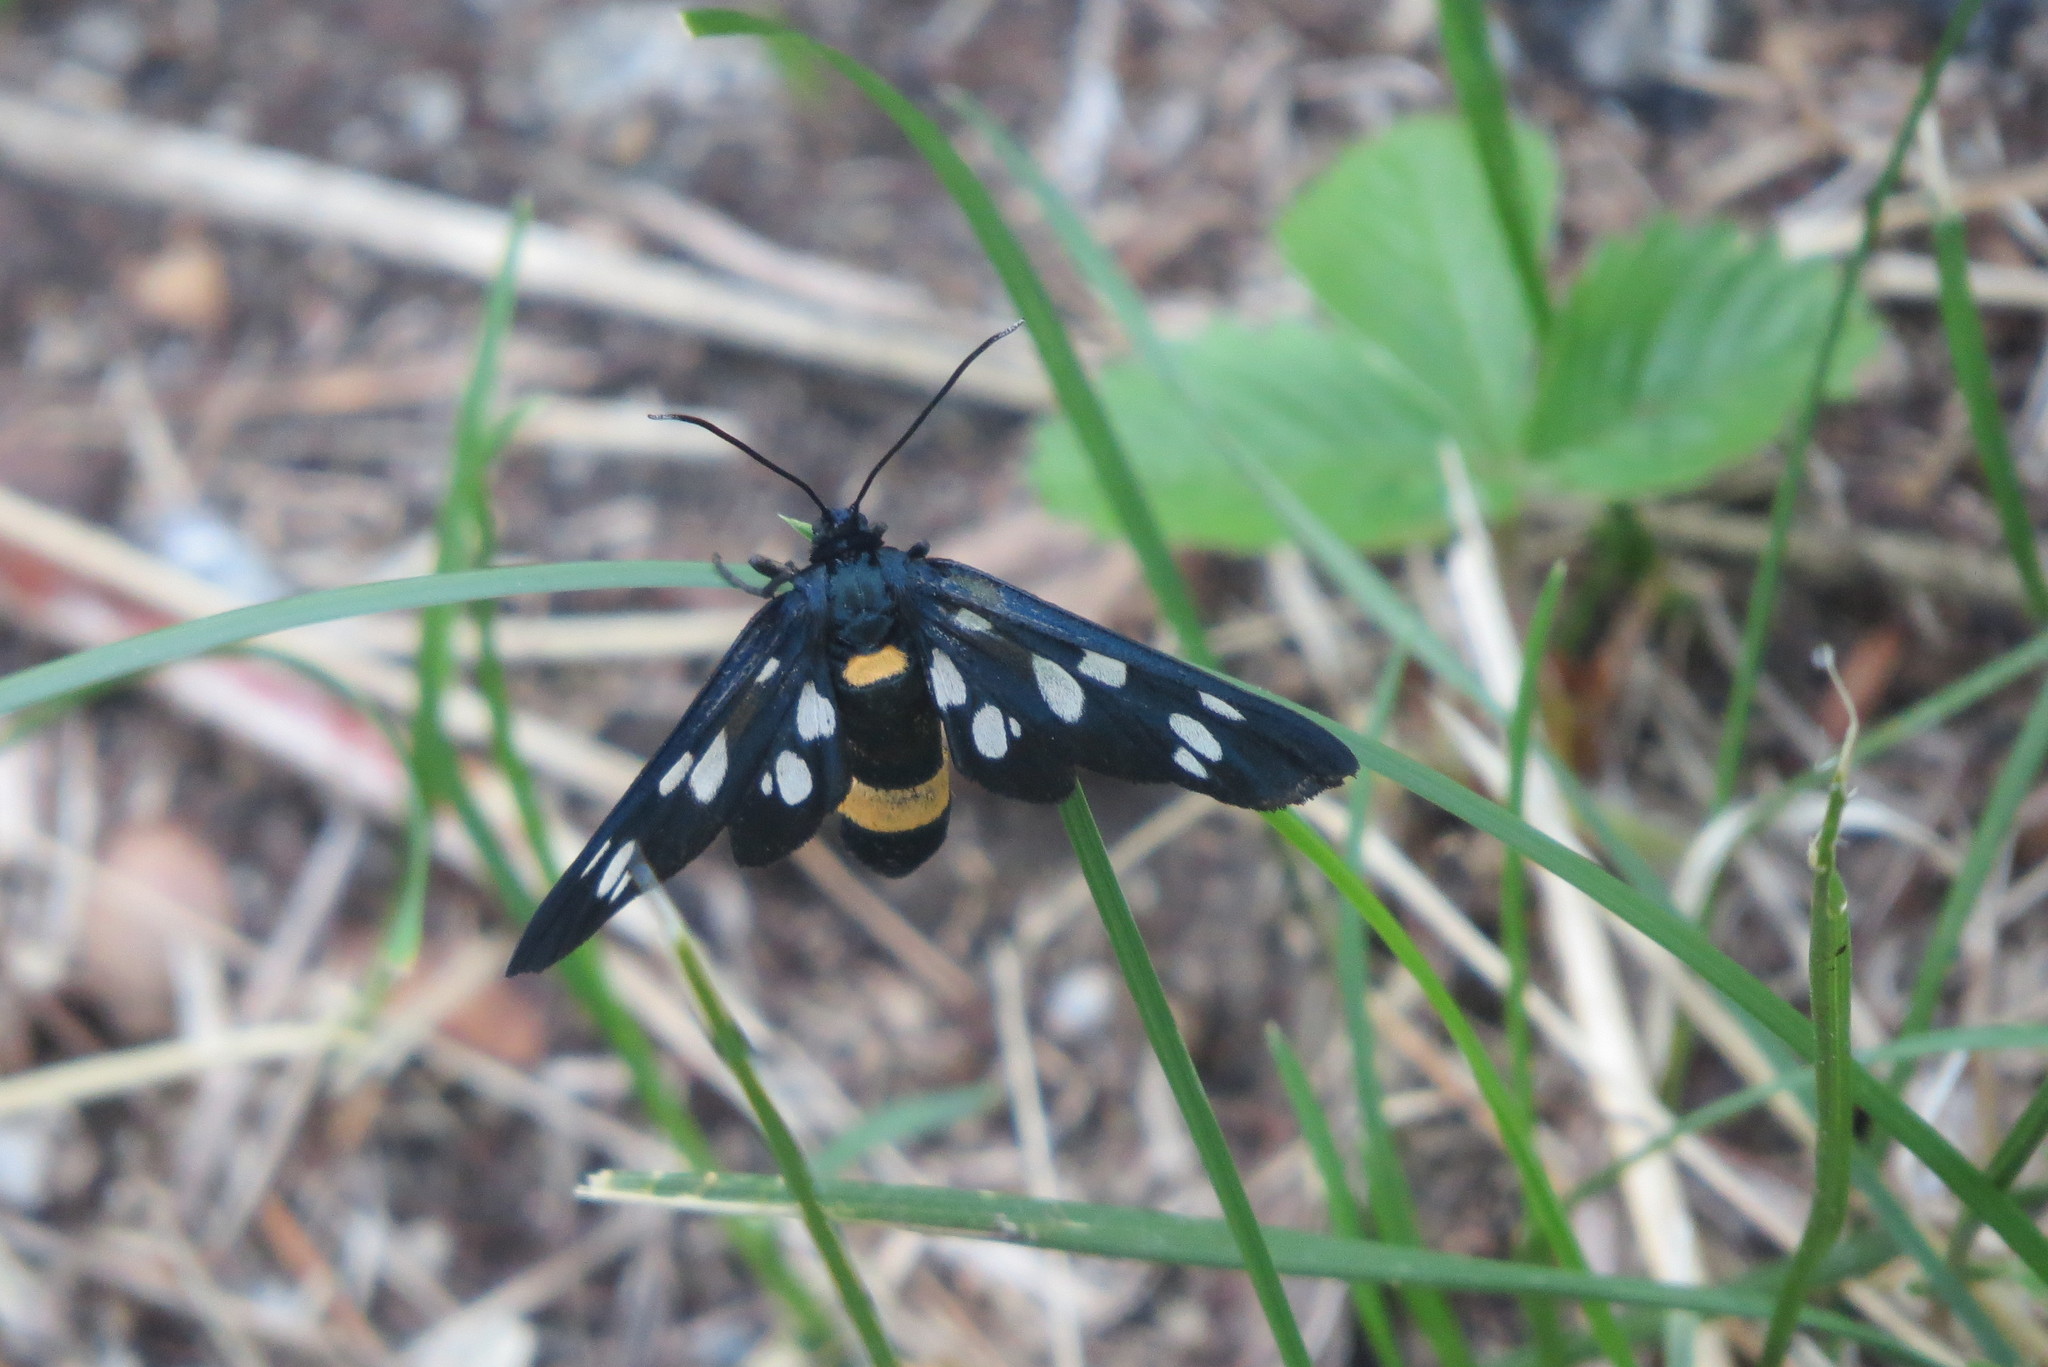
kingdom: Animalia
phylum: Arthropoda
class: Insecta
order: Lepidoptera
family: Erebidae
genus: Amata
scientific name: Amata phegea
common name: Nine-spotted
